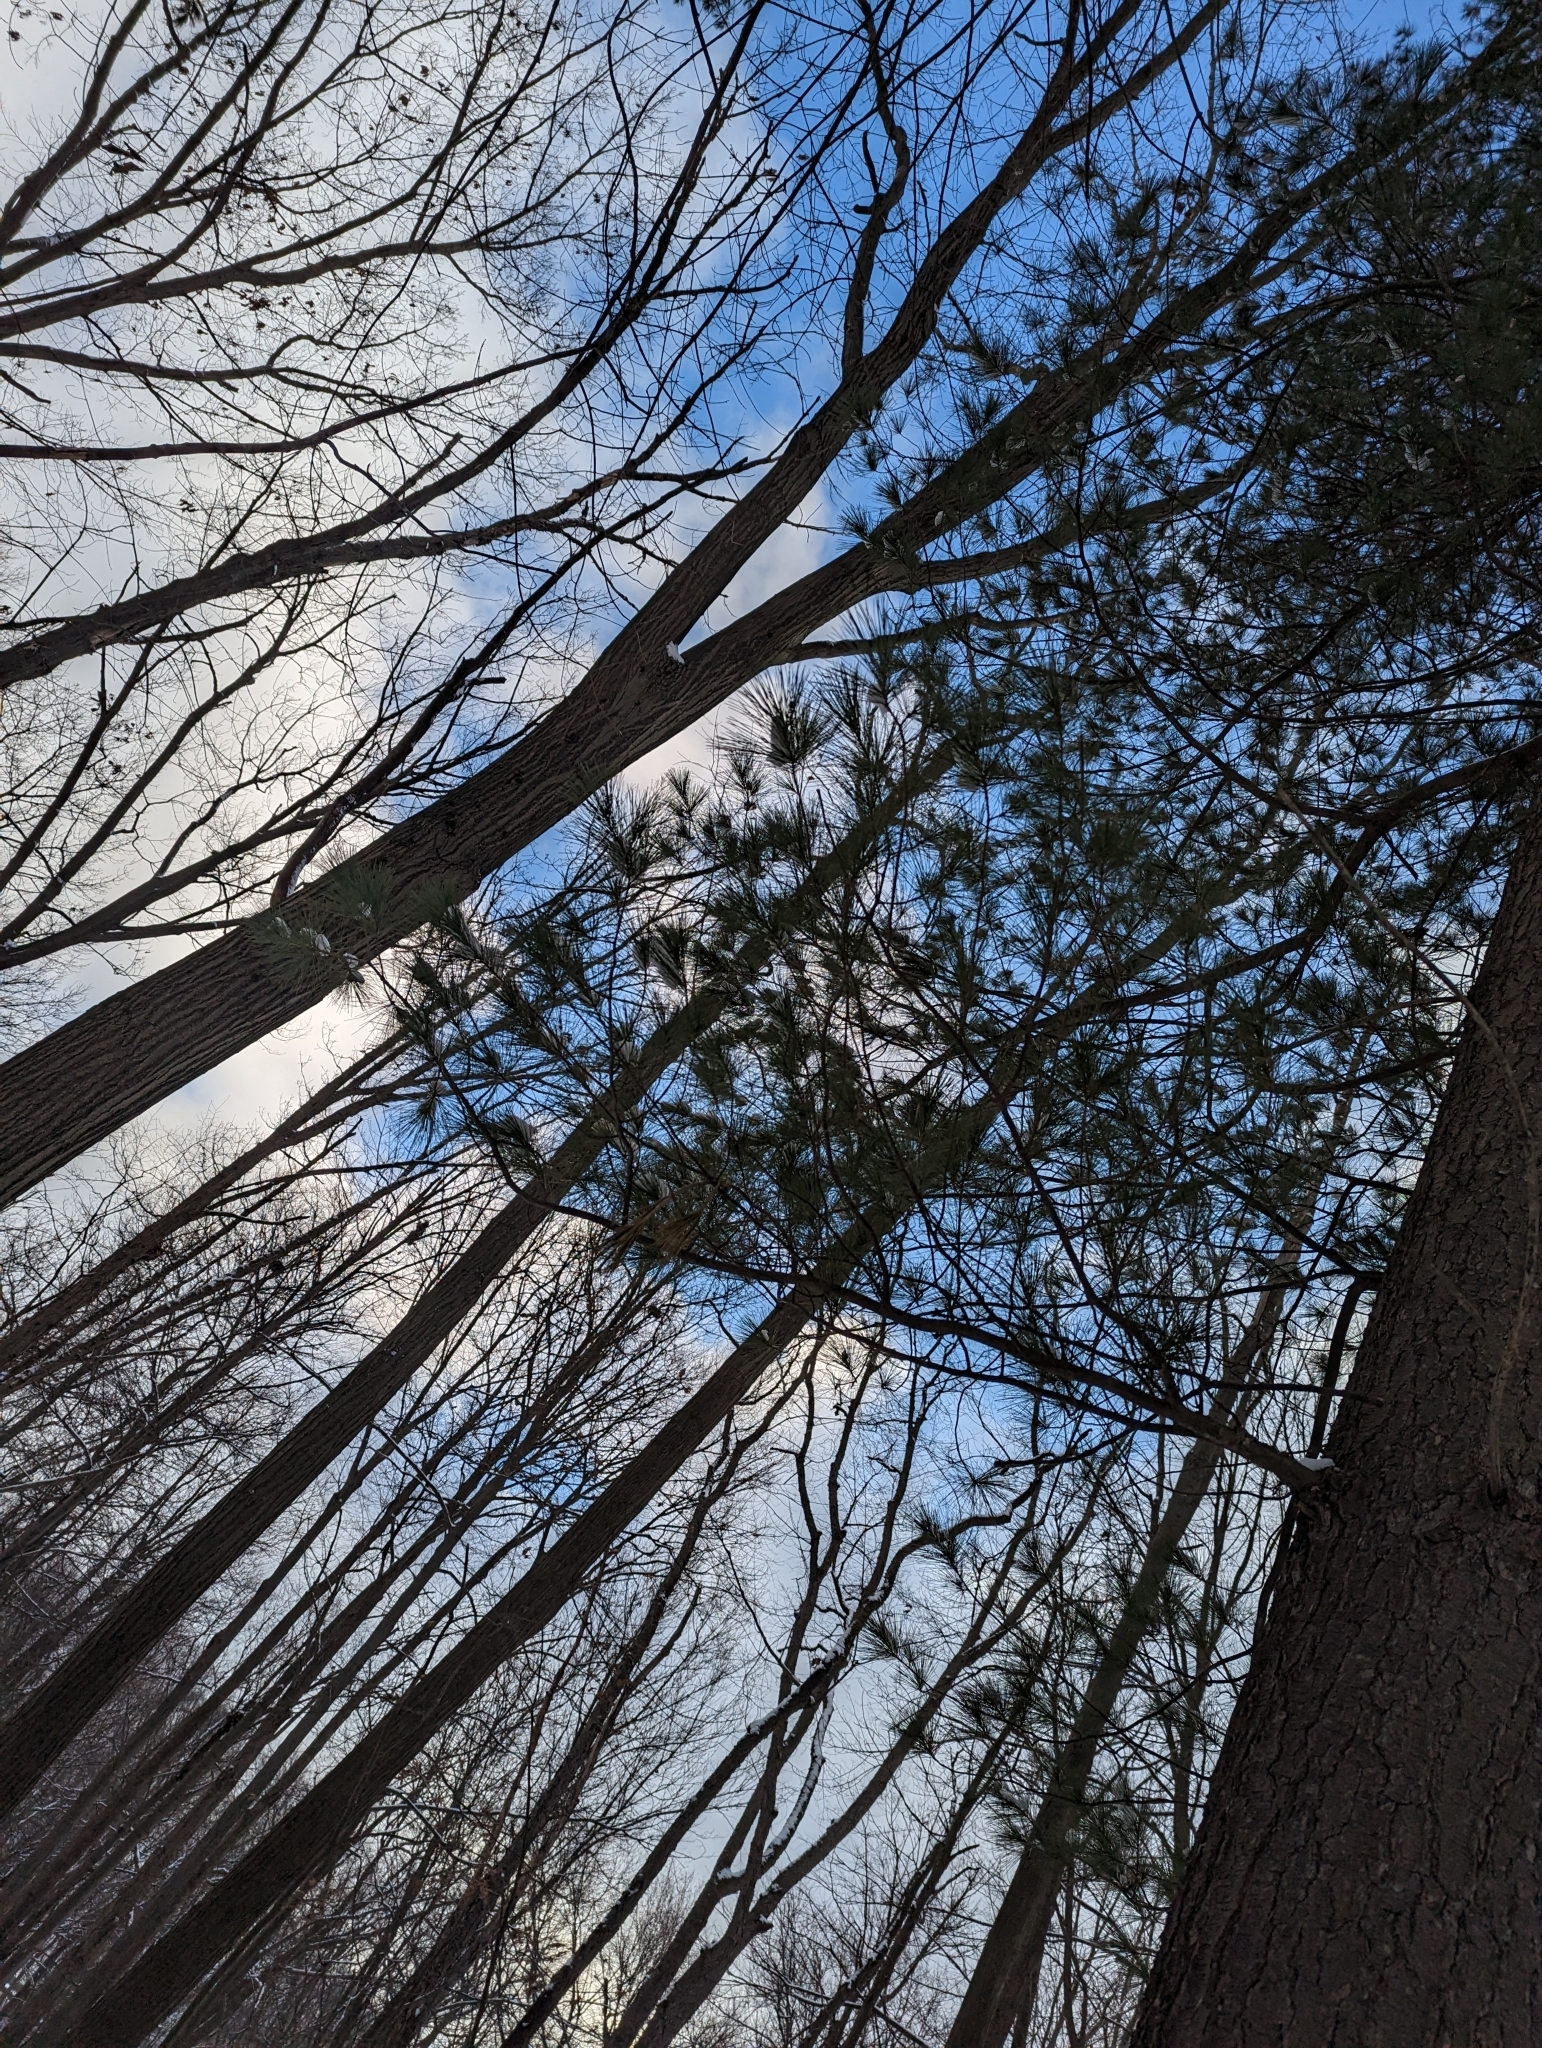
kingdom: Plantae
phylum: Tracheophyta
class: Pinopsida
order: Pinales
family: Pinaceae
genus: Pinus
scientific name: Pinus strobus
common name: Weymouth pine
